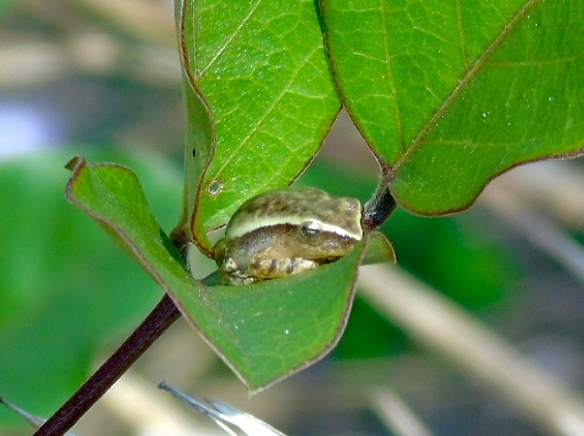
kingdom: Animalia
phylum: Chordata
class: Amphibia
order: Anura
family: Hylidae
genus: Tlalocohyla
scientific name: Tlalocohyla smithii
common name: Dwarf mexican treefrog
